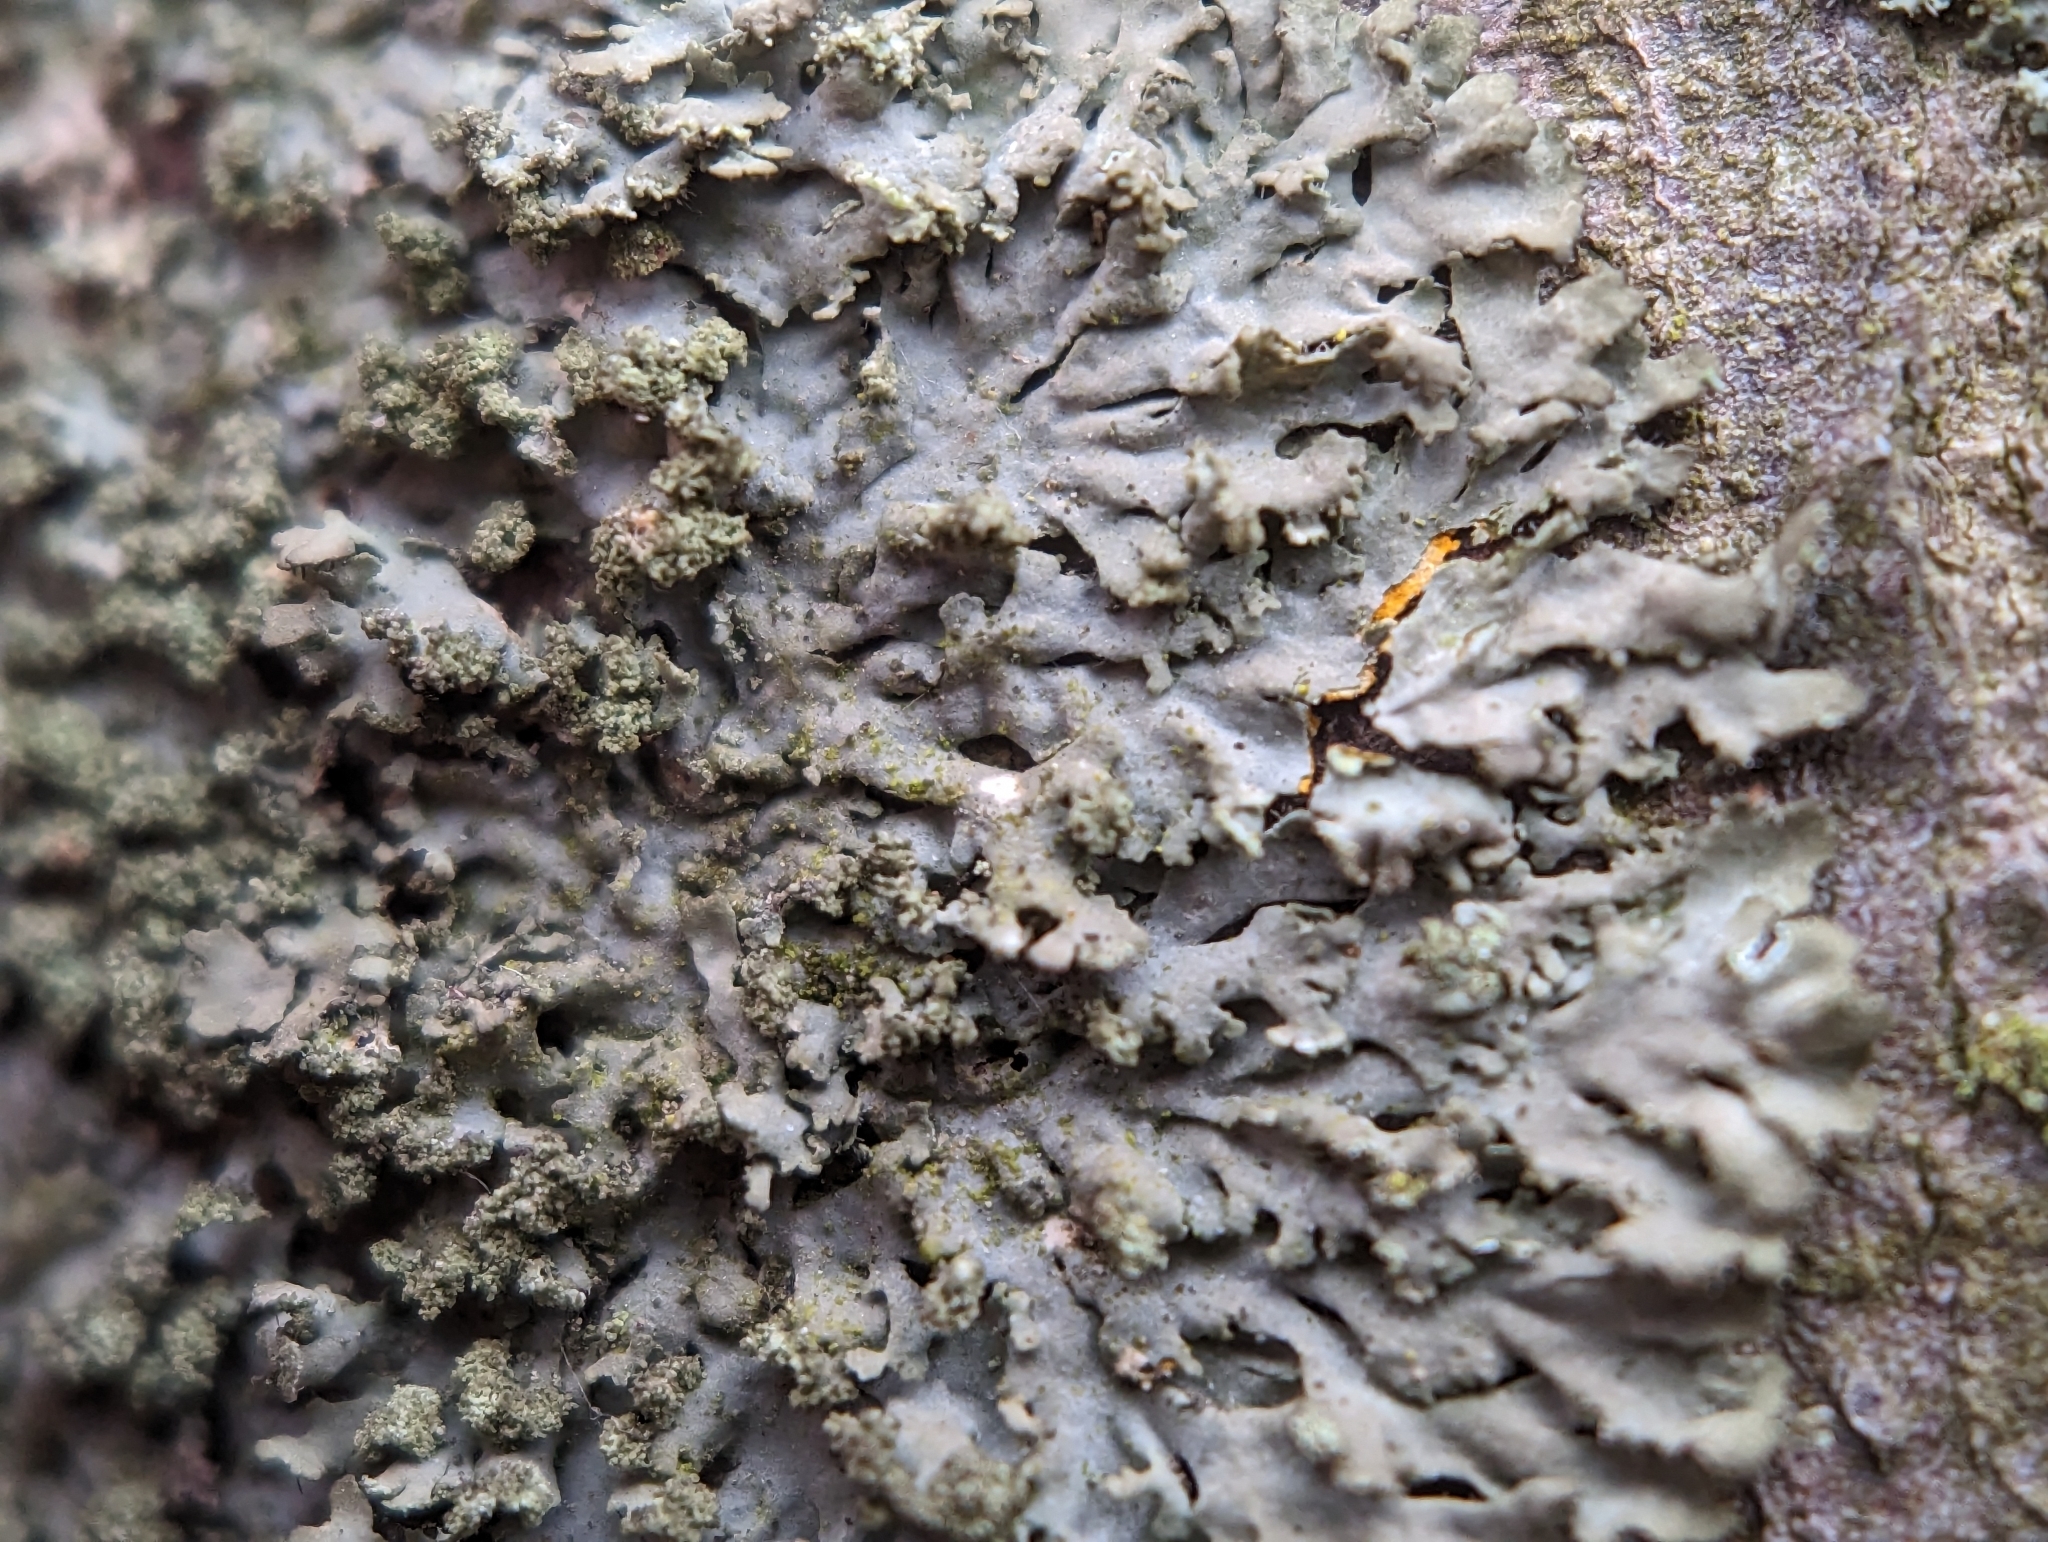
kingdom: Fungi
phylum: Ascomycota
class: Lecanoromycetes
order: Caliciales
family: Physciaceae
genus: Phaeophyscia
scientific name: Phaeophyscia rubropulchra
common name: Orange-cored shadow lichen
